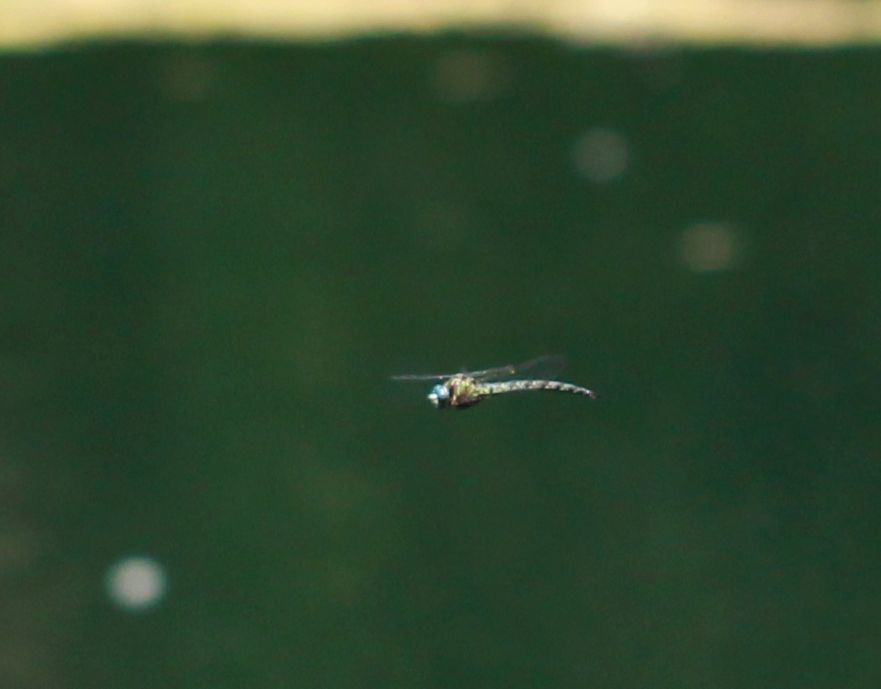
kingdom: Animalia
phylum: Arthropoda
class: Insecta
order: Odonata
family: Aeshnidae
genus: Nasiaeschna
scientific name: Nasiaeschna pentacantha
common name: Cyrano darner
